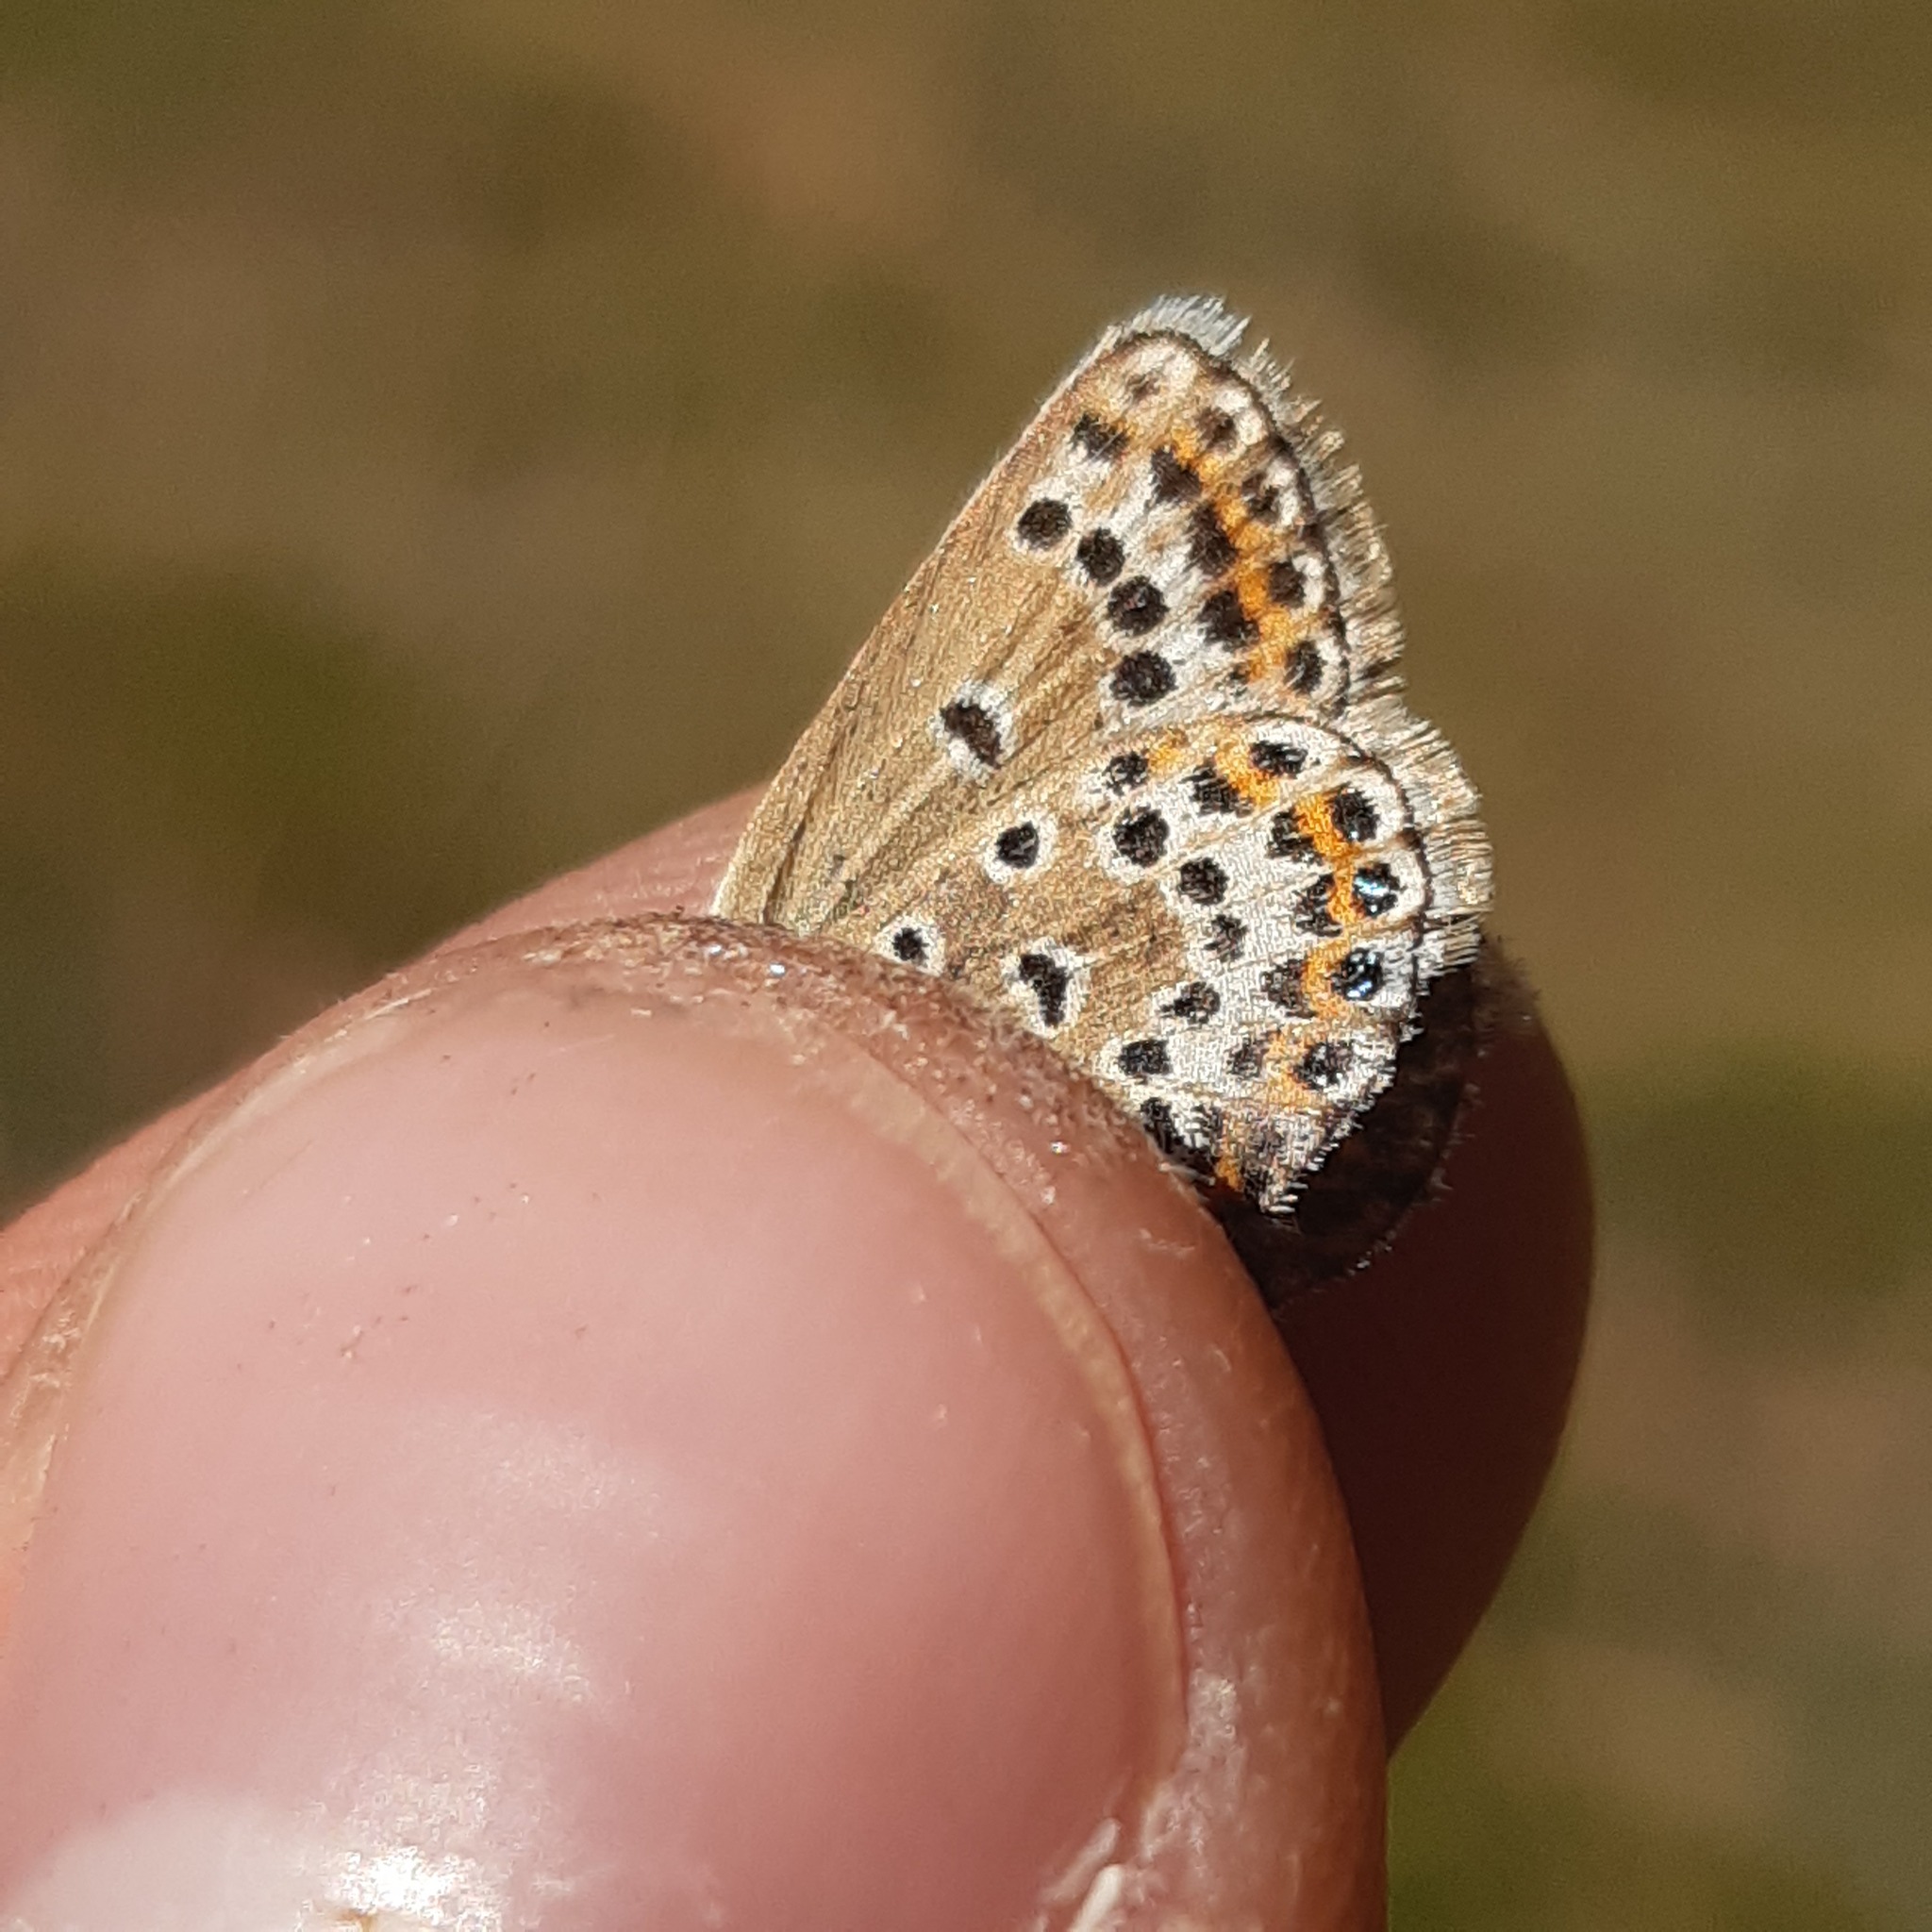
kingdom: Animalia
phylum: Arthropoda
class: Insecta
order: Lepidoptera
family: Lycaenidae
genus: Plebejus
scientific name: Plebejus argus
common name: Silver-studded blue
